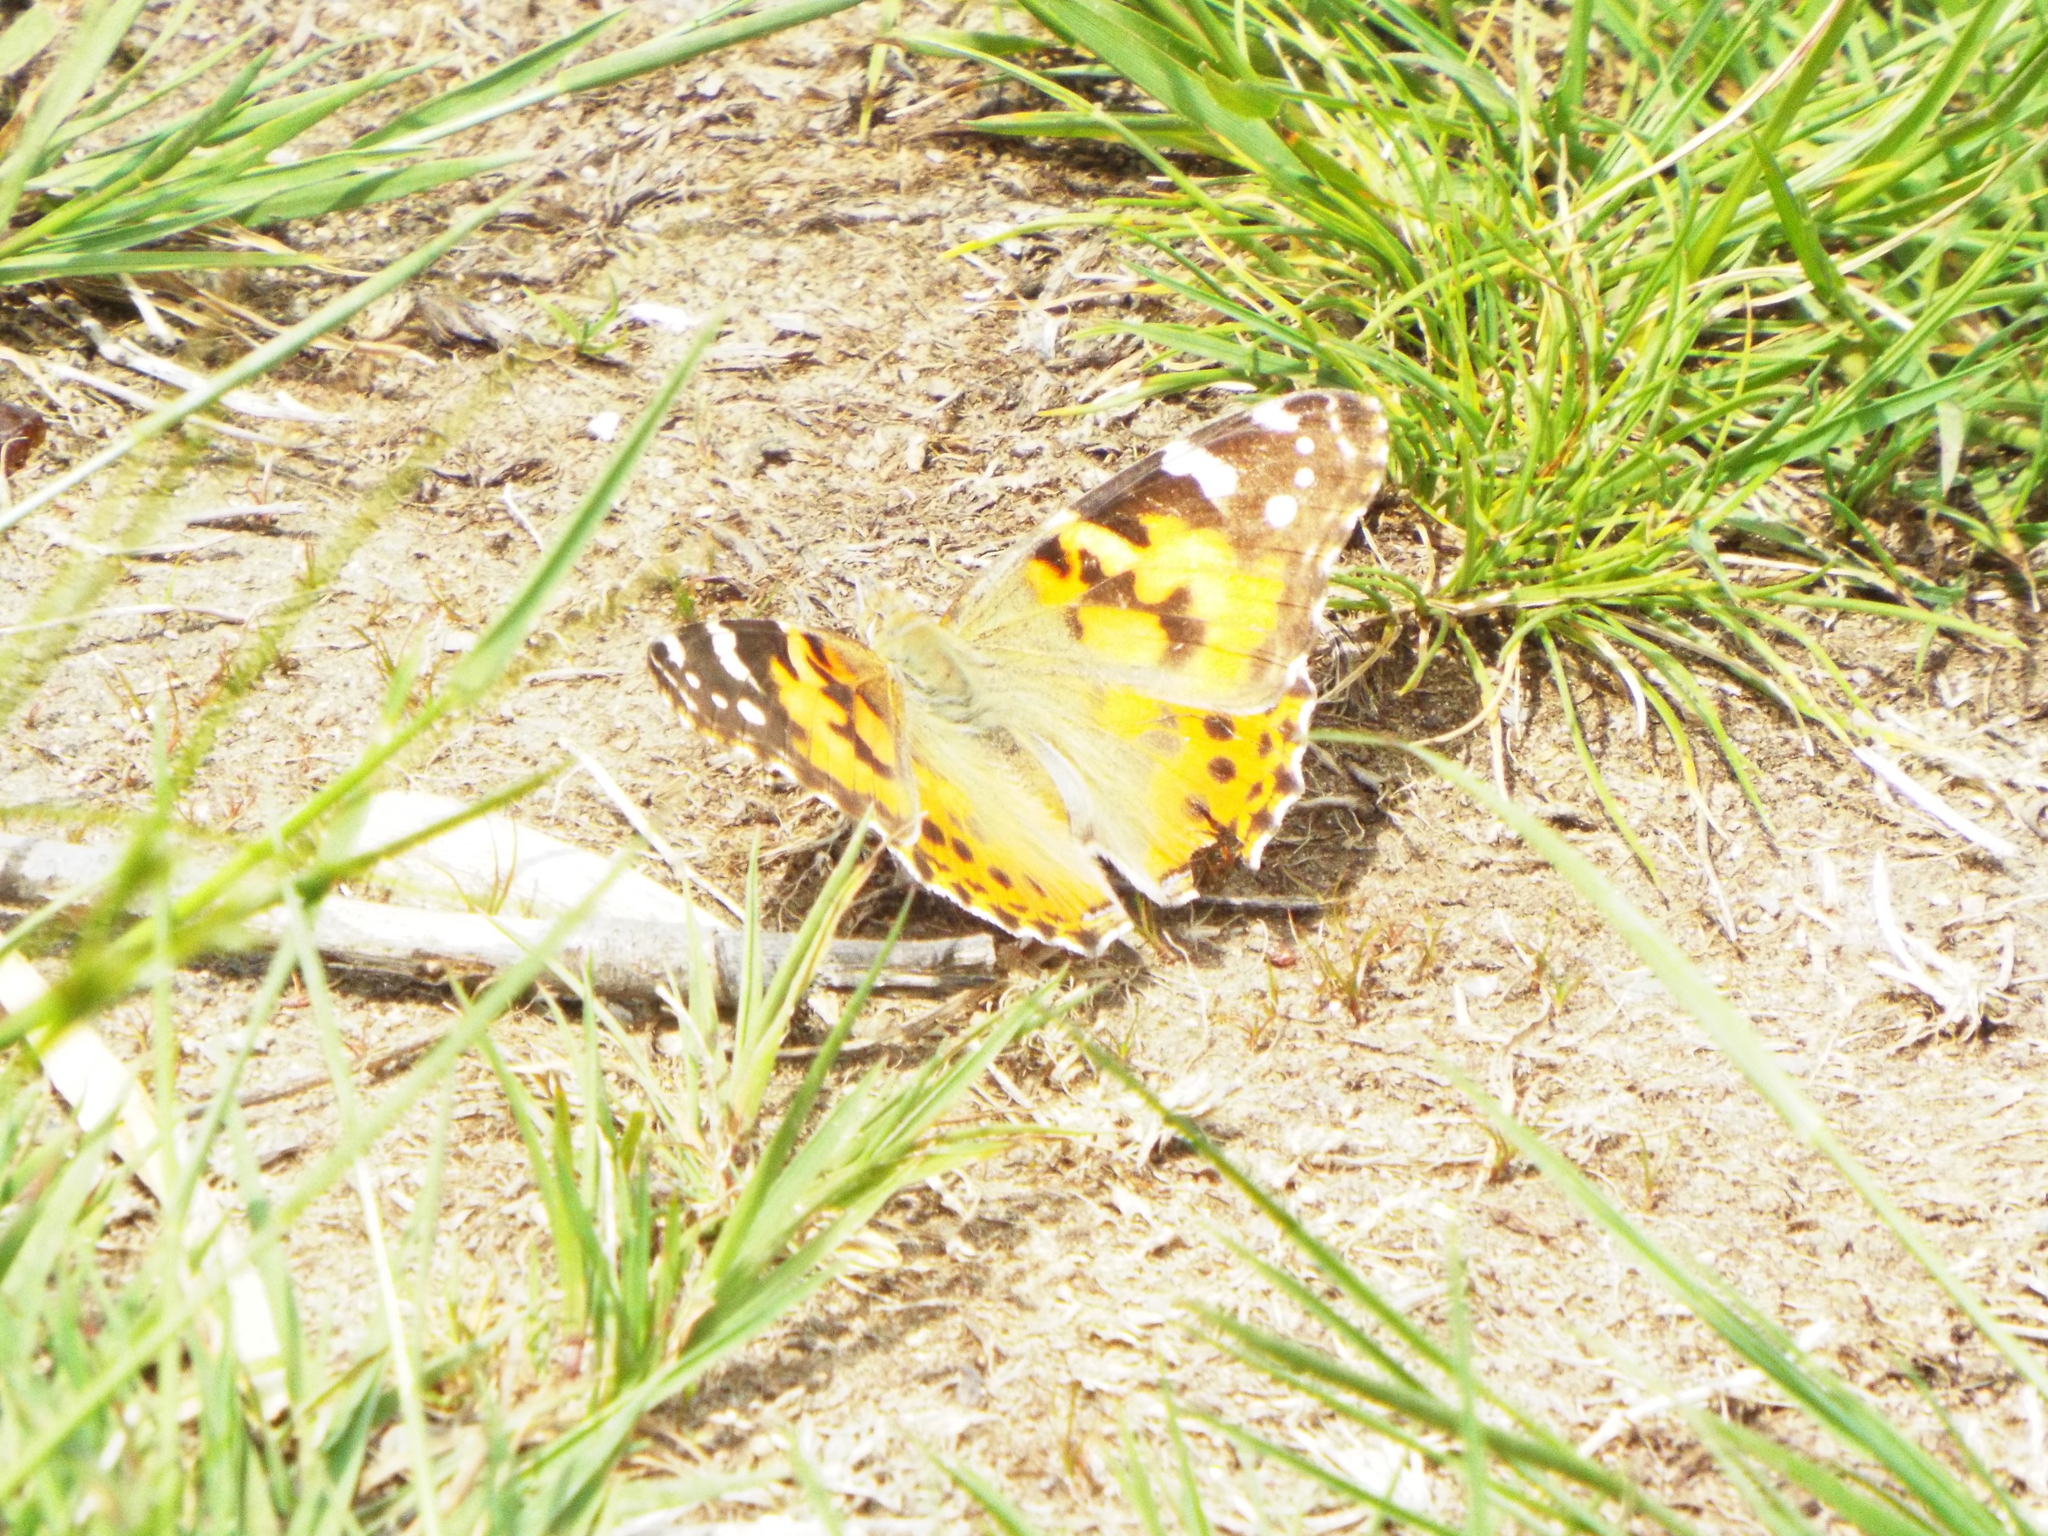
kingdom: Animalia
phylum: Arthropoda
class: Insecta
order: Lepidoptera
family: Nymphalidae
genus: Vanessa
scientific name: Vanessa cardui
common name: Painted lady
